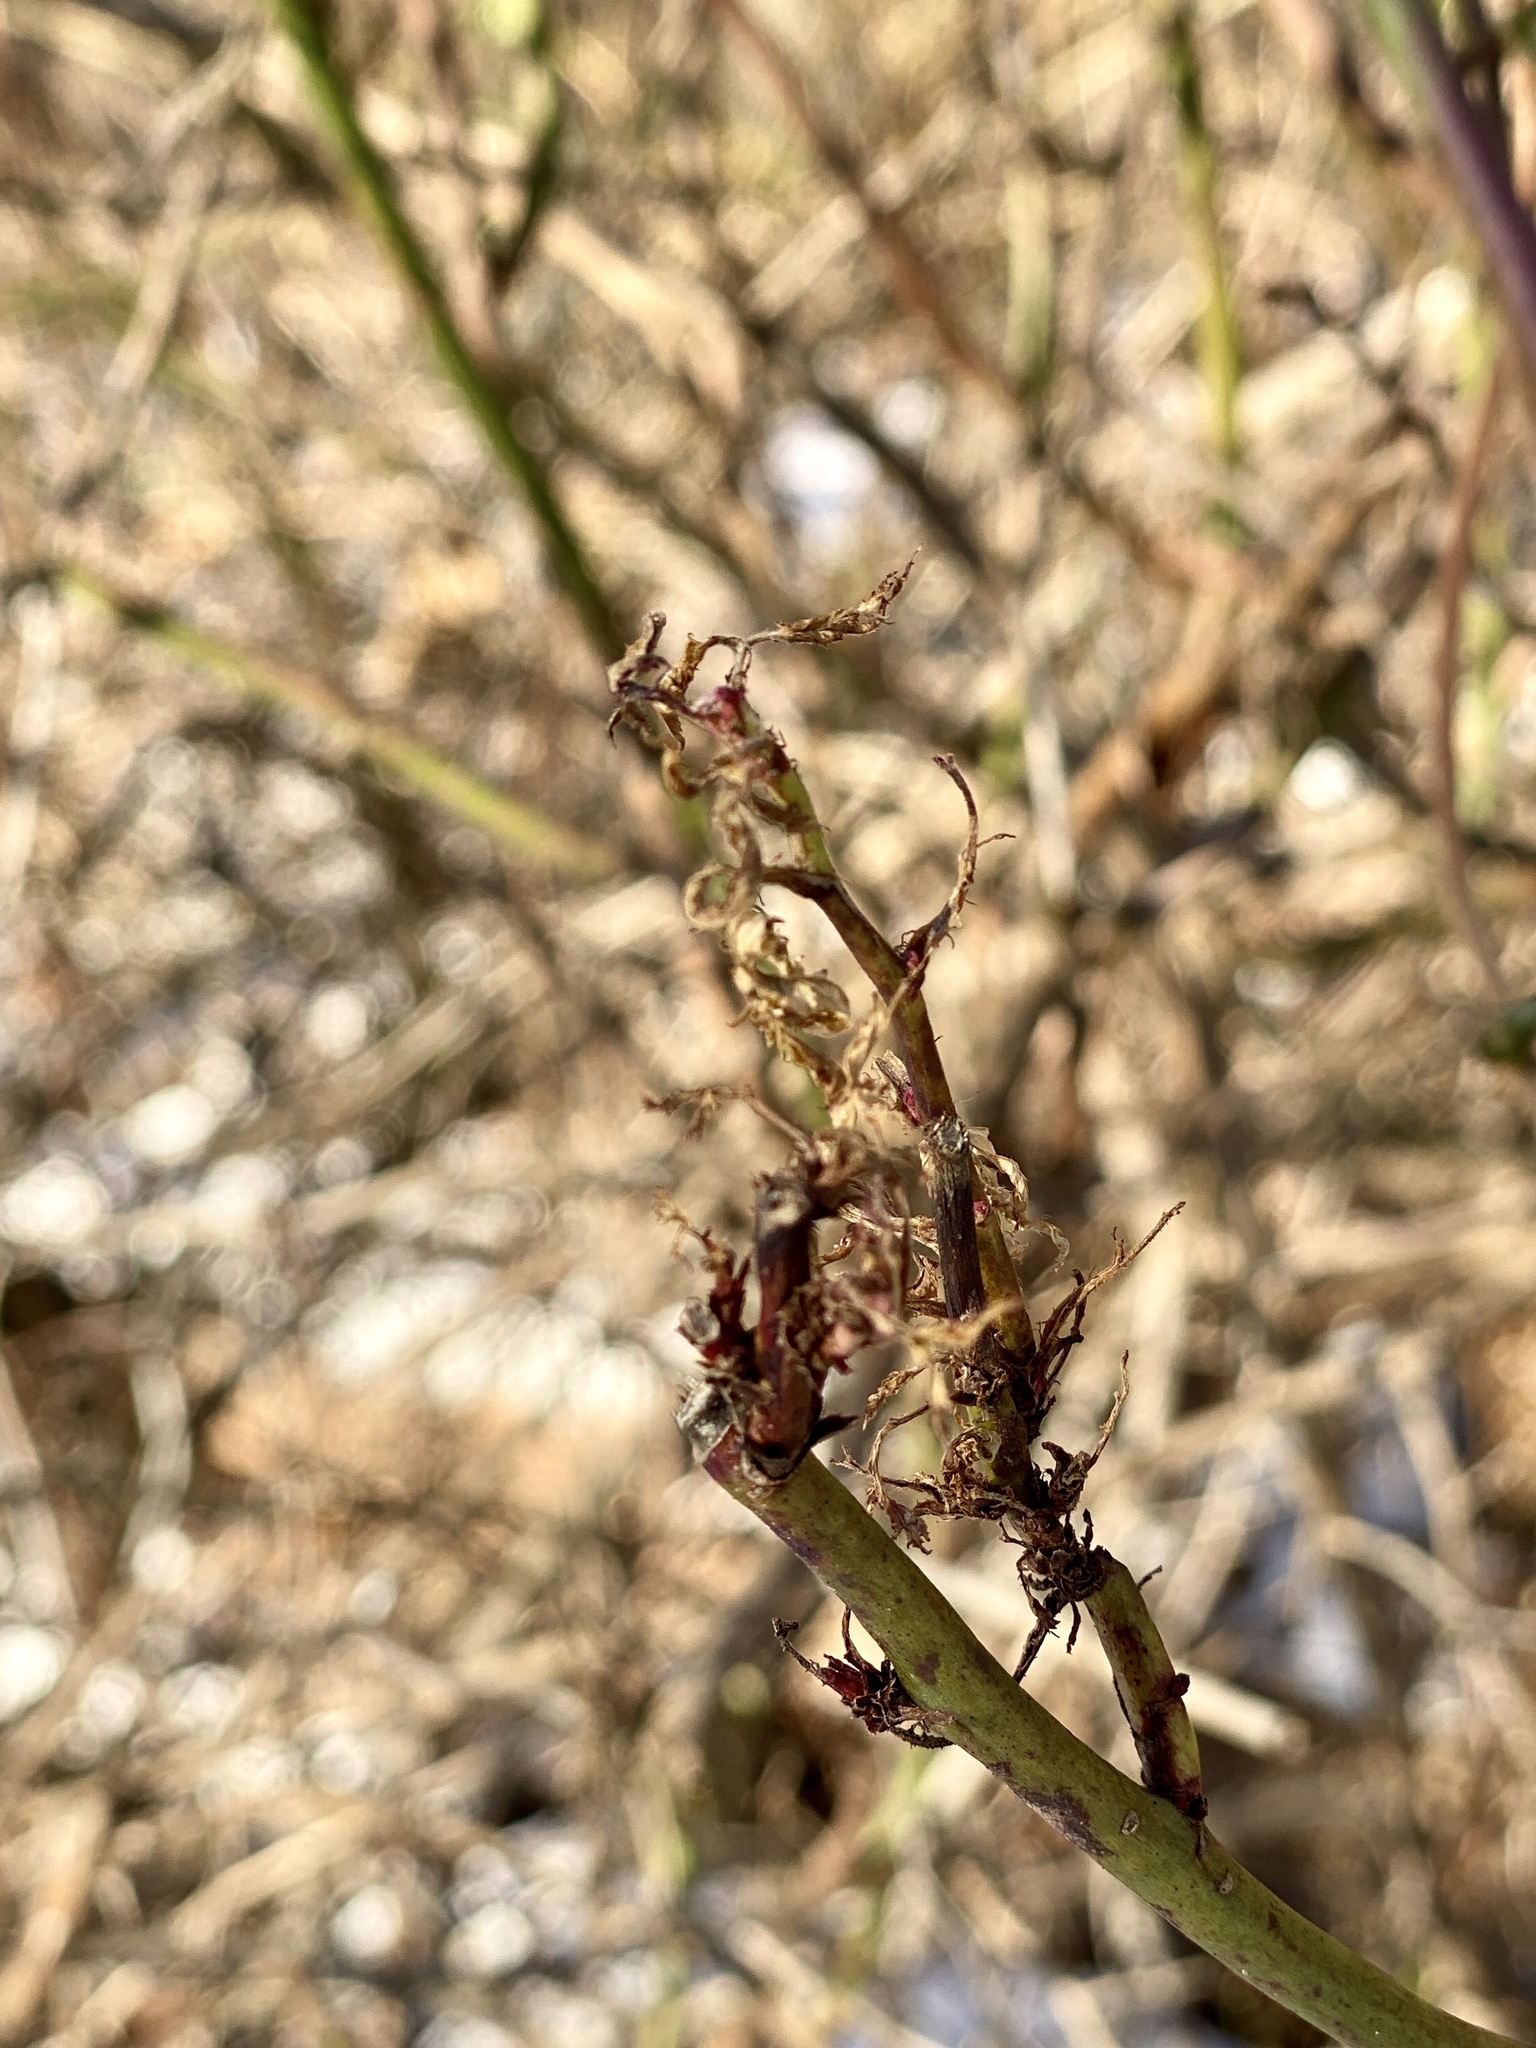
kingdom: Viruses
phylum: Negarnaviricota
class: Ellioviricetes
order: Bunyavirales
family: Fimoviridae
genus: Emaravirus
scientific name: Emaravirus rosae
